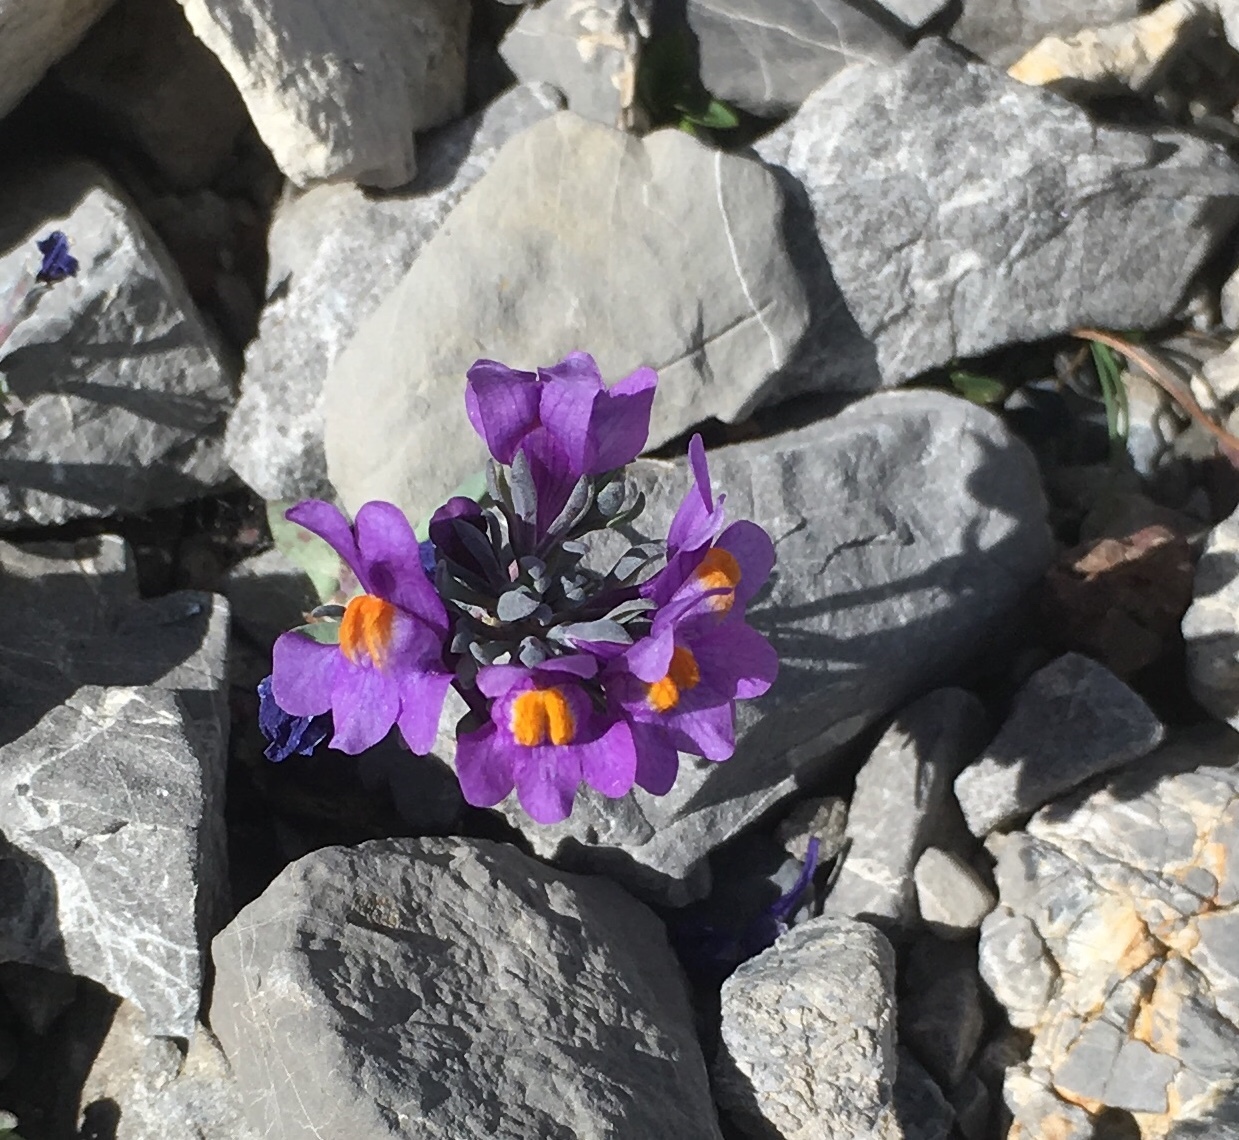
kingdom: Plantae
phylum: Tracheophyta
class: Magnoliopsida
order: Lamiales
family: Plantaginaceae
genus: Linaria
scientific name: Linaria alpina
